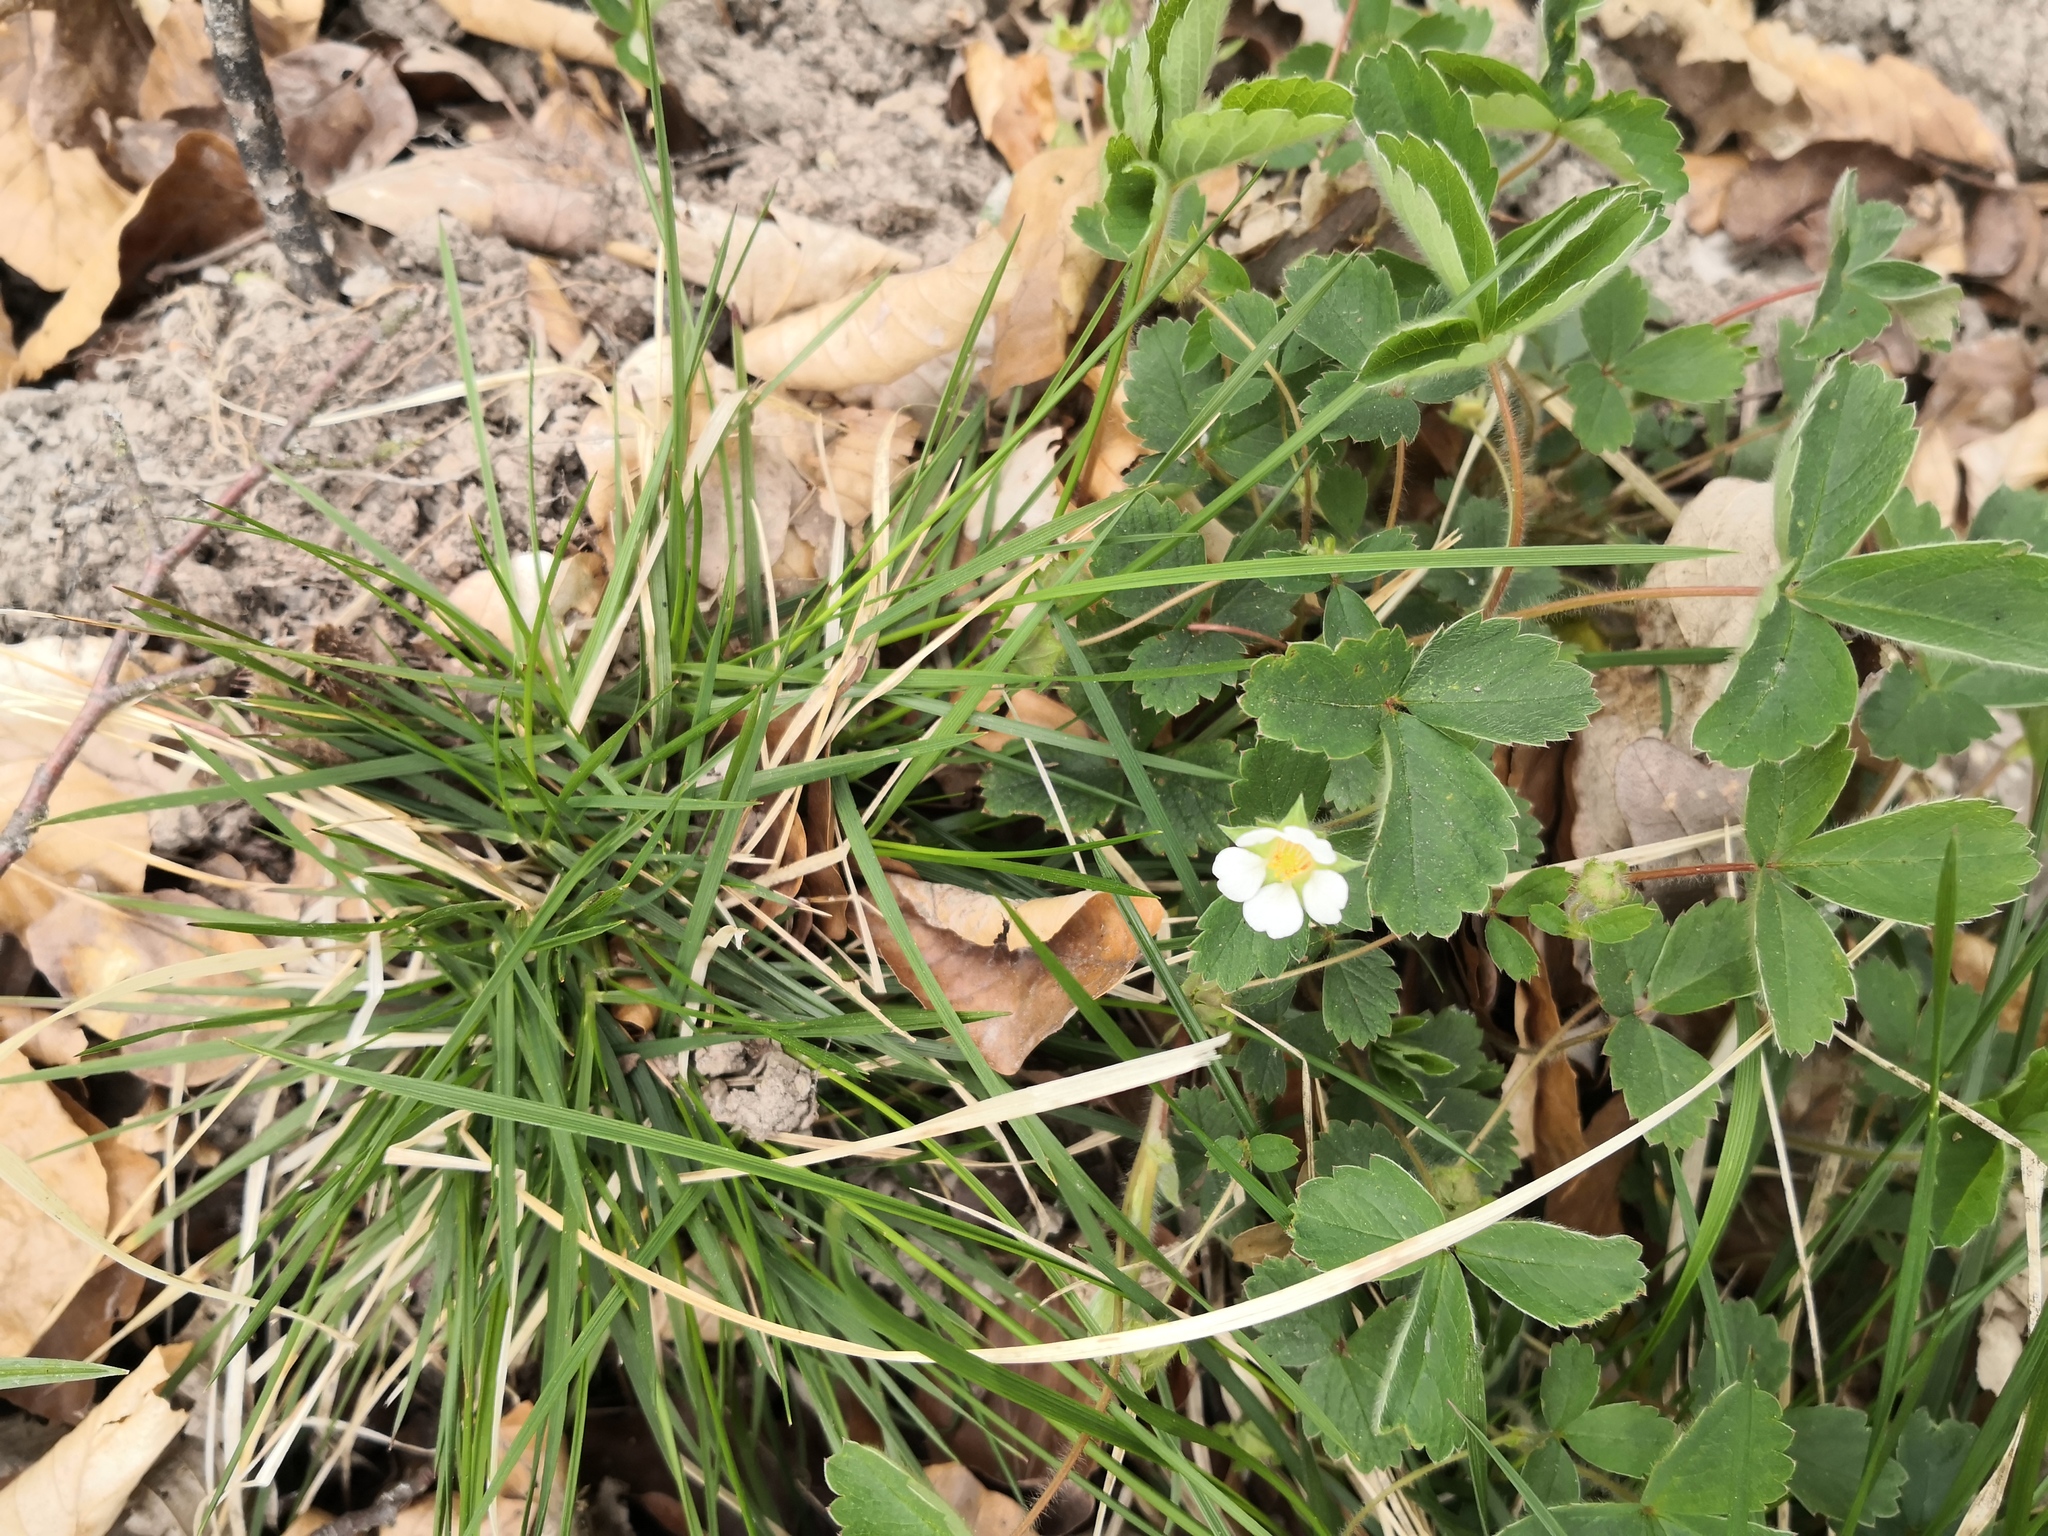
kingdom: Plantae
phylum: Tracheophyta
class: Magnoliopsida
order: Rosales
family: Rosaceae
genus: Potentilla
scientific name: Potentilla sterilis
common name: Barren strawberry
